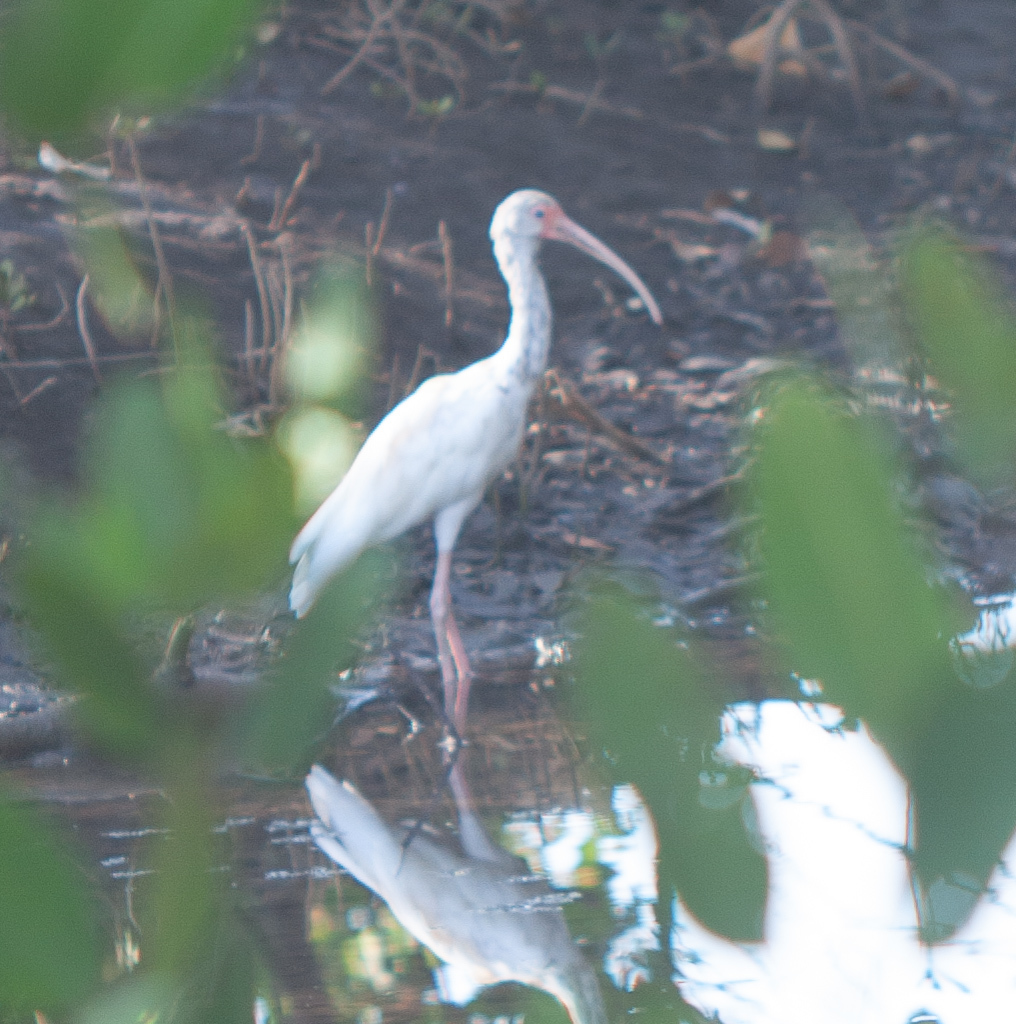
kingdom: Animalia
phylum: Chordata
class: Aves
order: Pelecaniformes
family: Threskiornithidae
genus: Eudocimus
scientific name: Eudocimus albus
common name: White ibis
